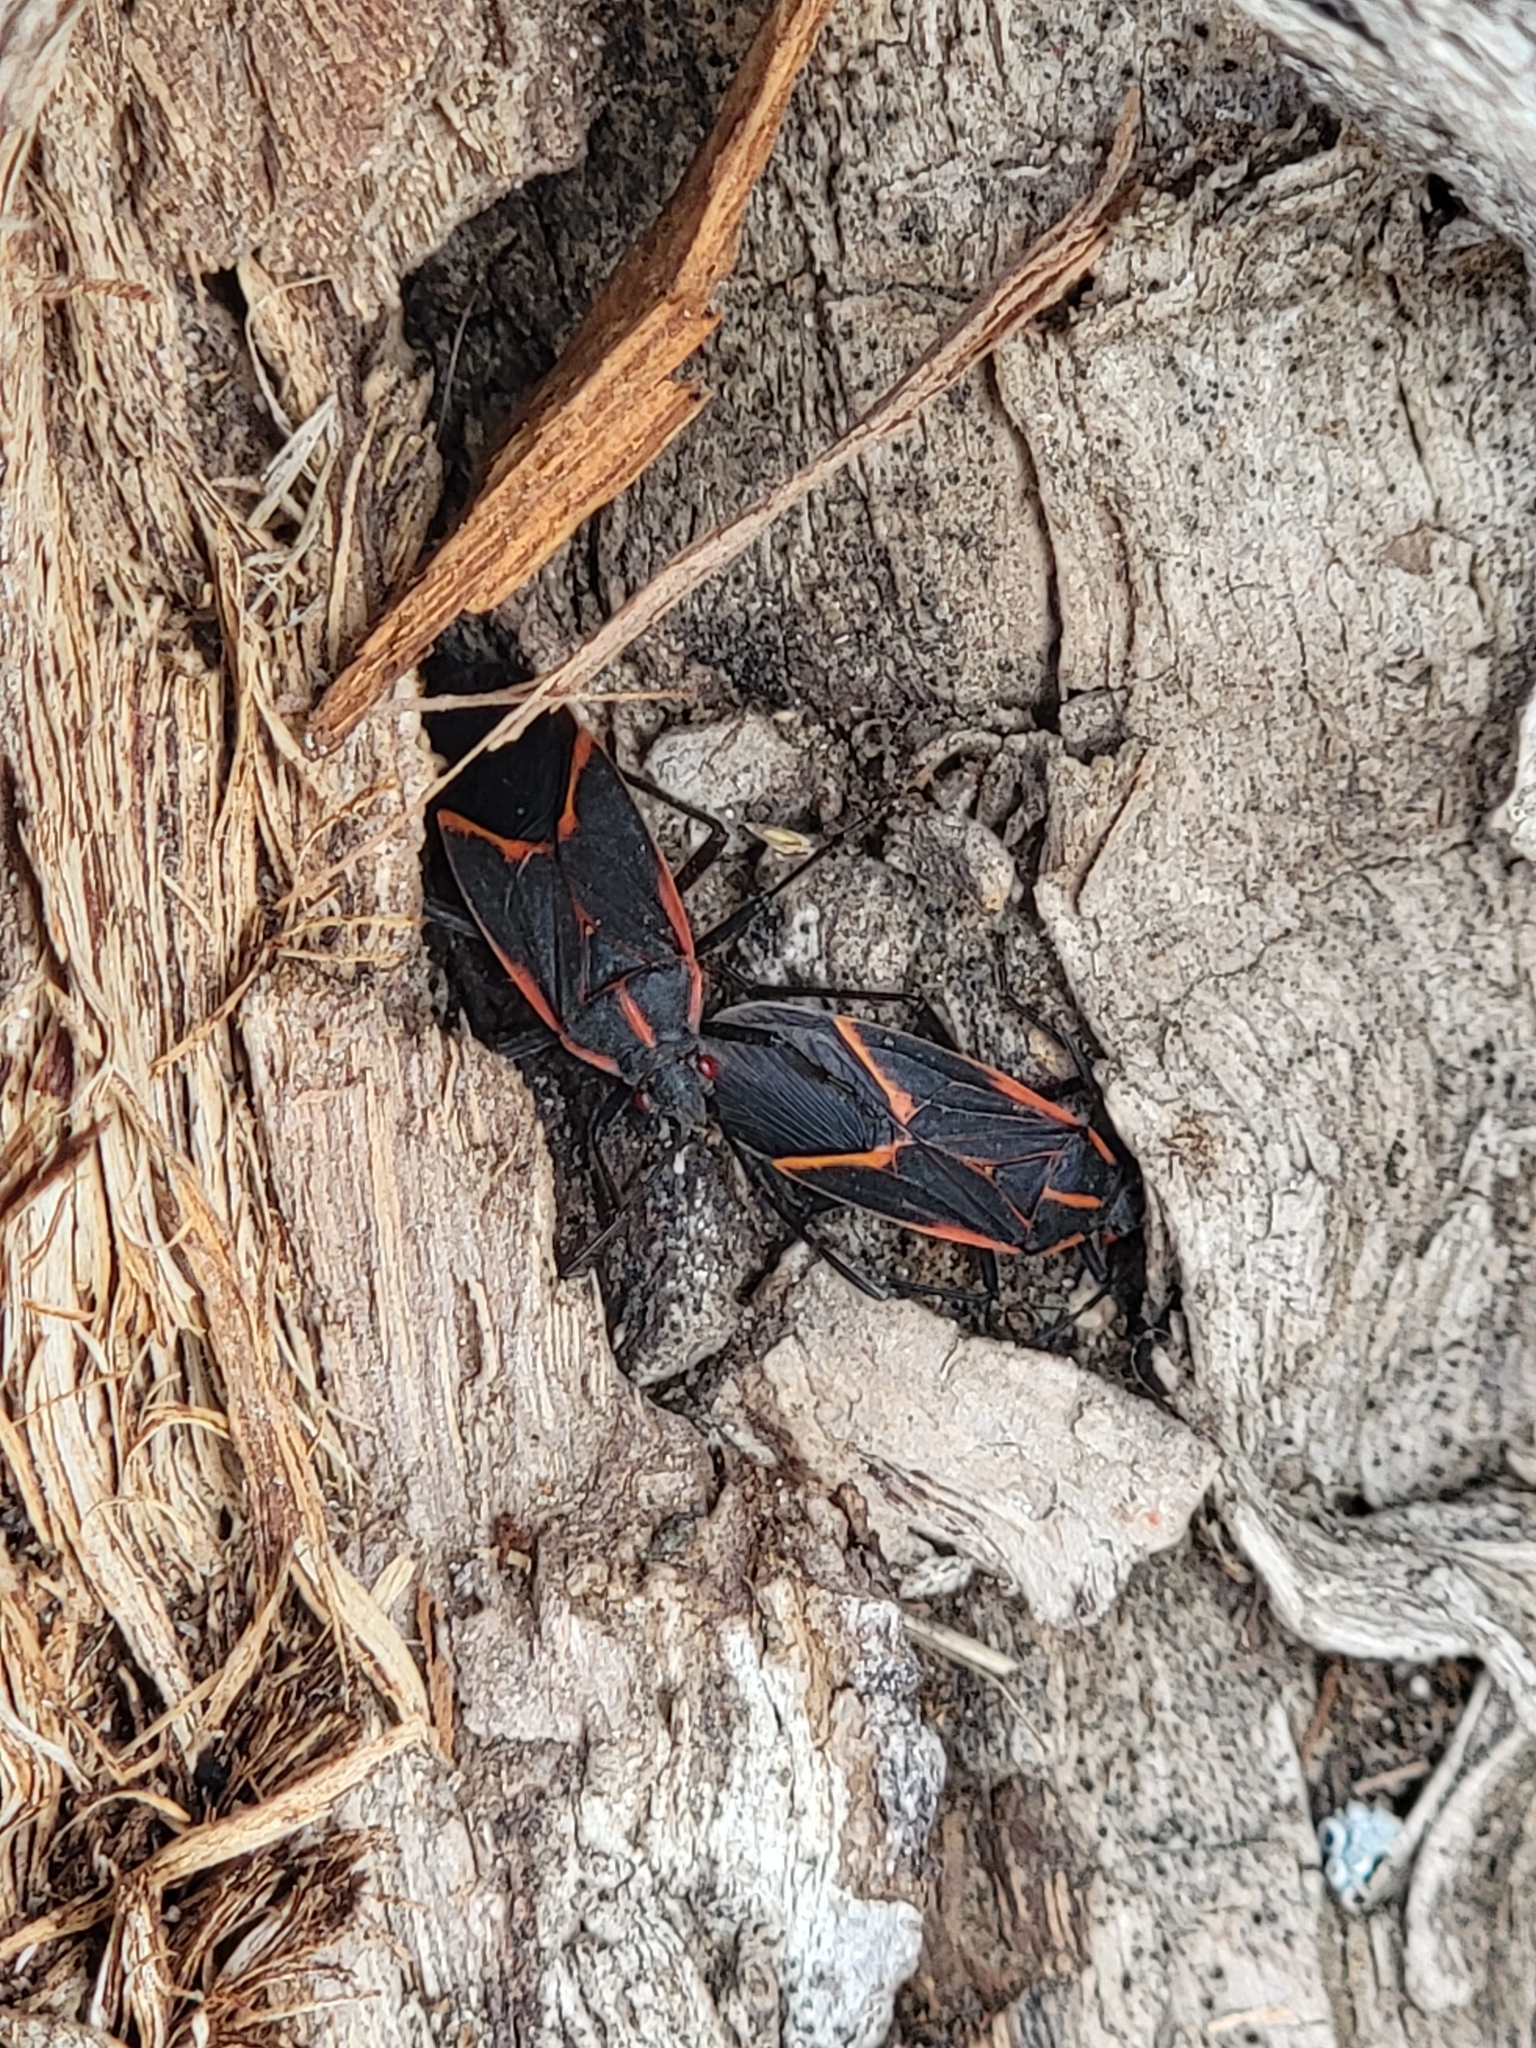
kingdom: Animalia
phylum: Arthropoda
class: Insecta
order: Hemiptera
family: Rhopalidae
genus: Boisea
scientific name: Boisea trivittata
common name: Boxelder bug
